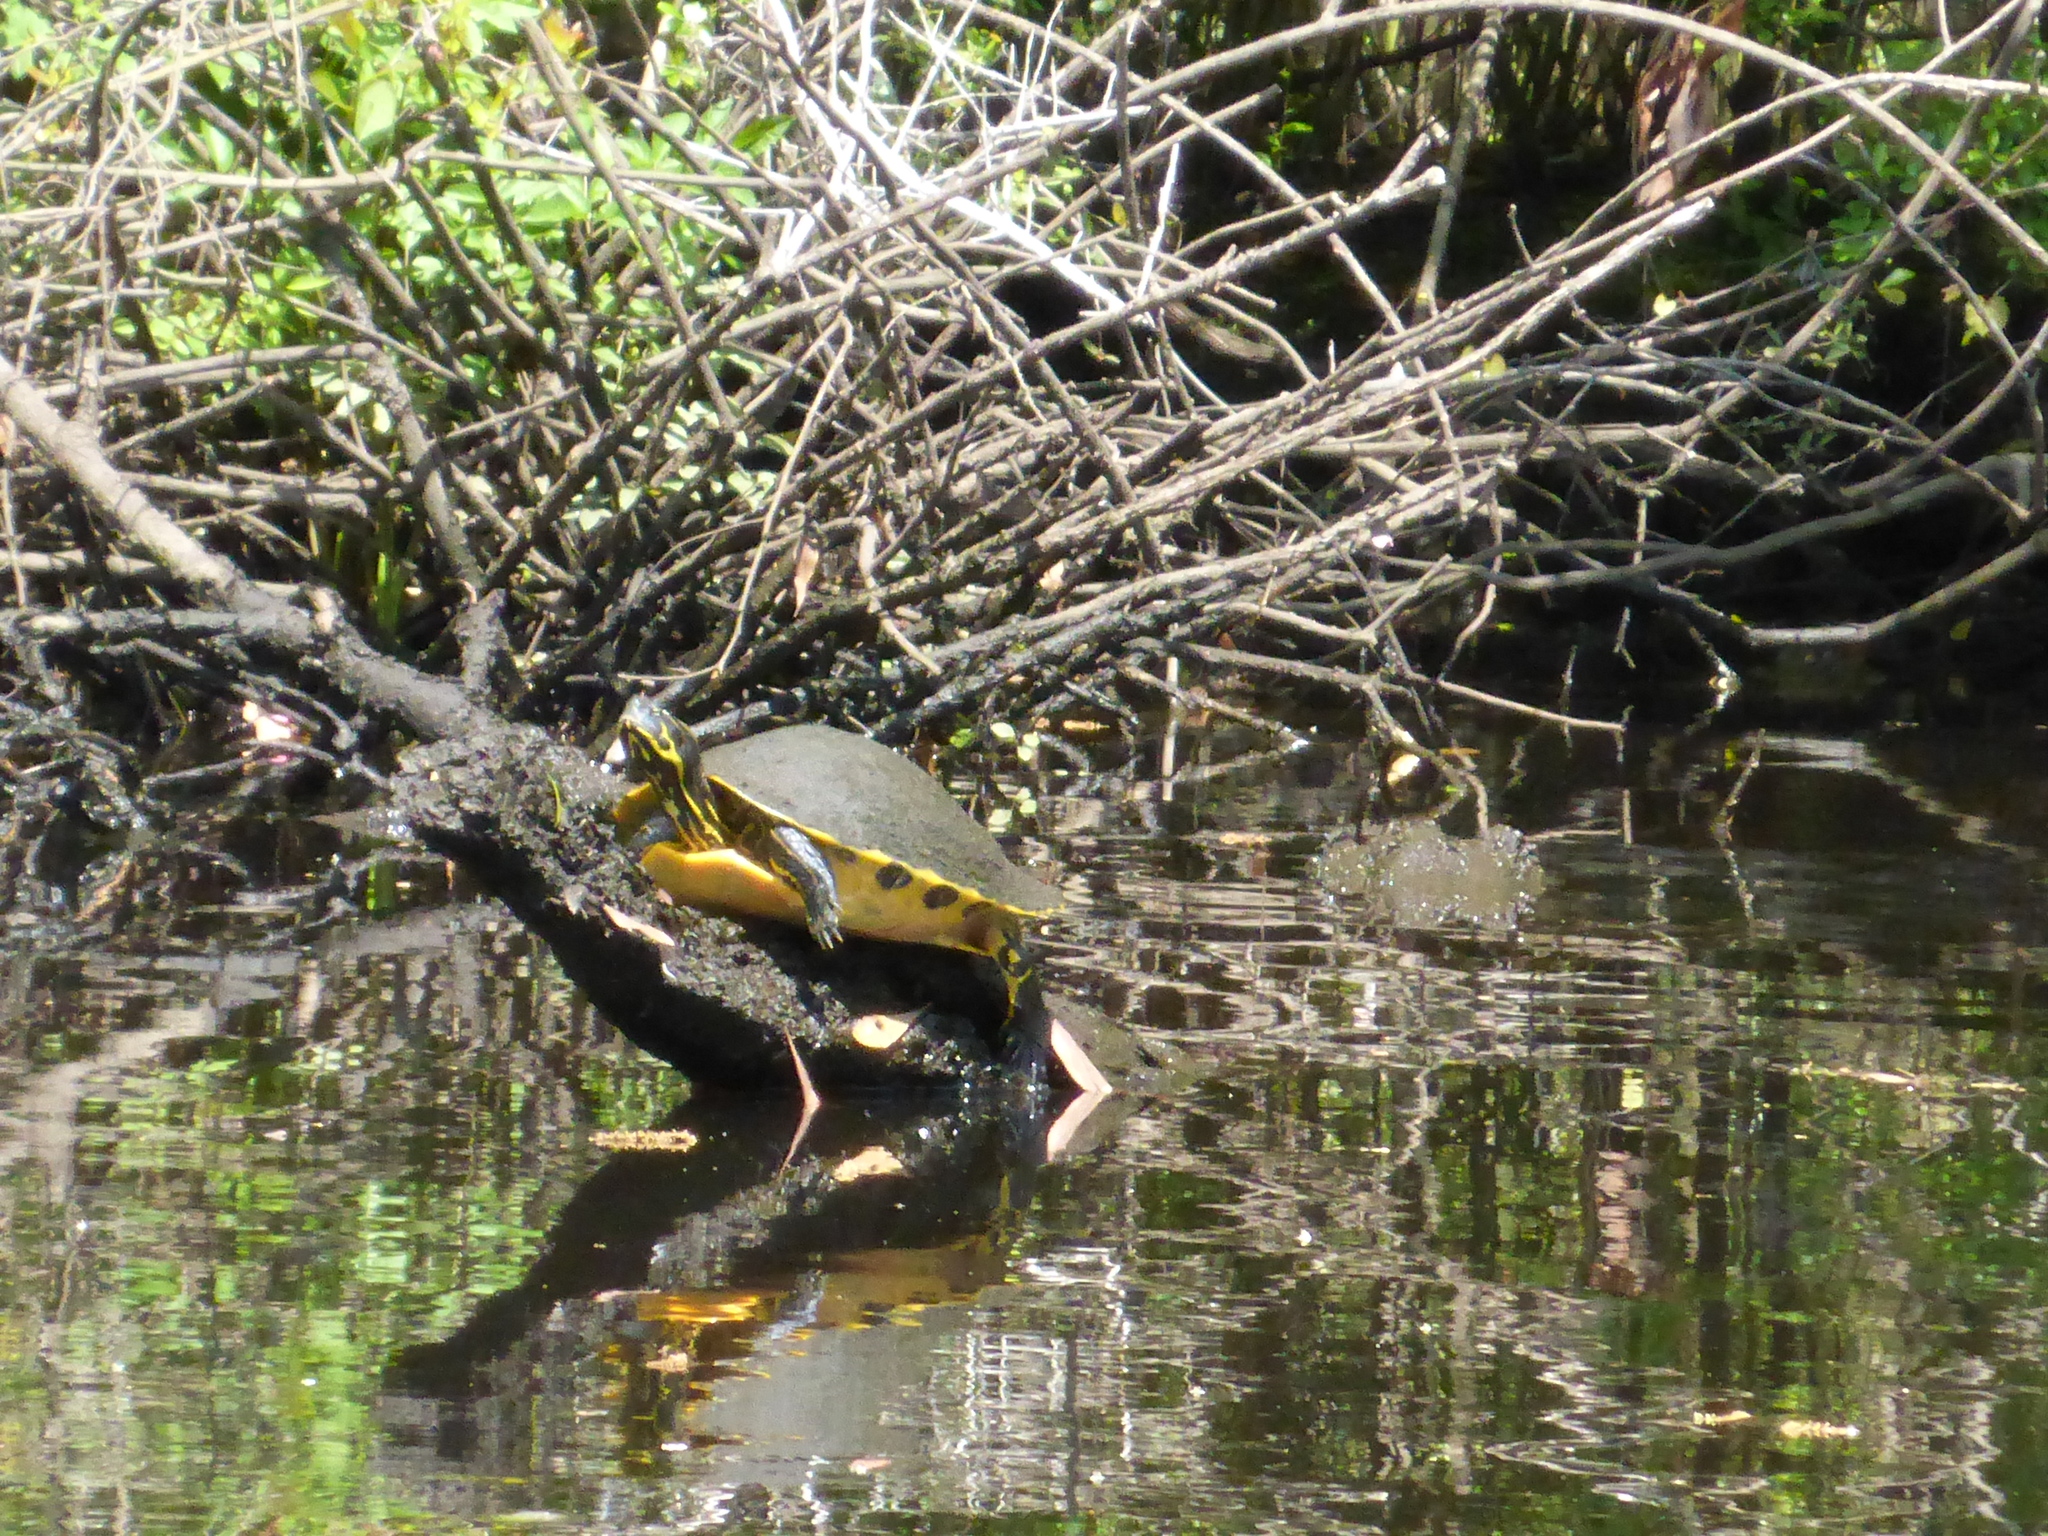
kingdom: Animalia
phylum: Chordata
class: Testudines
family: Emydidae
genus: Pseudemys
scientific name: Pseudemys concinna
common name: Eastern river cooter
